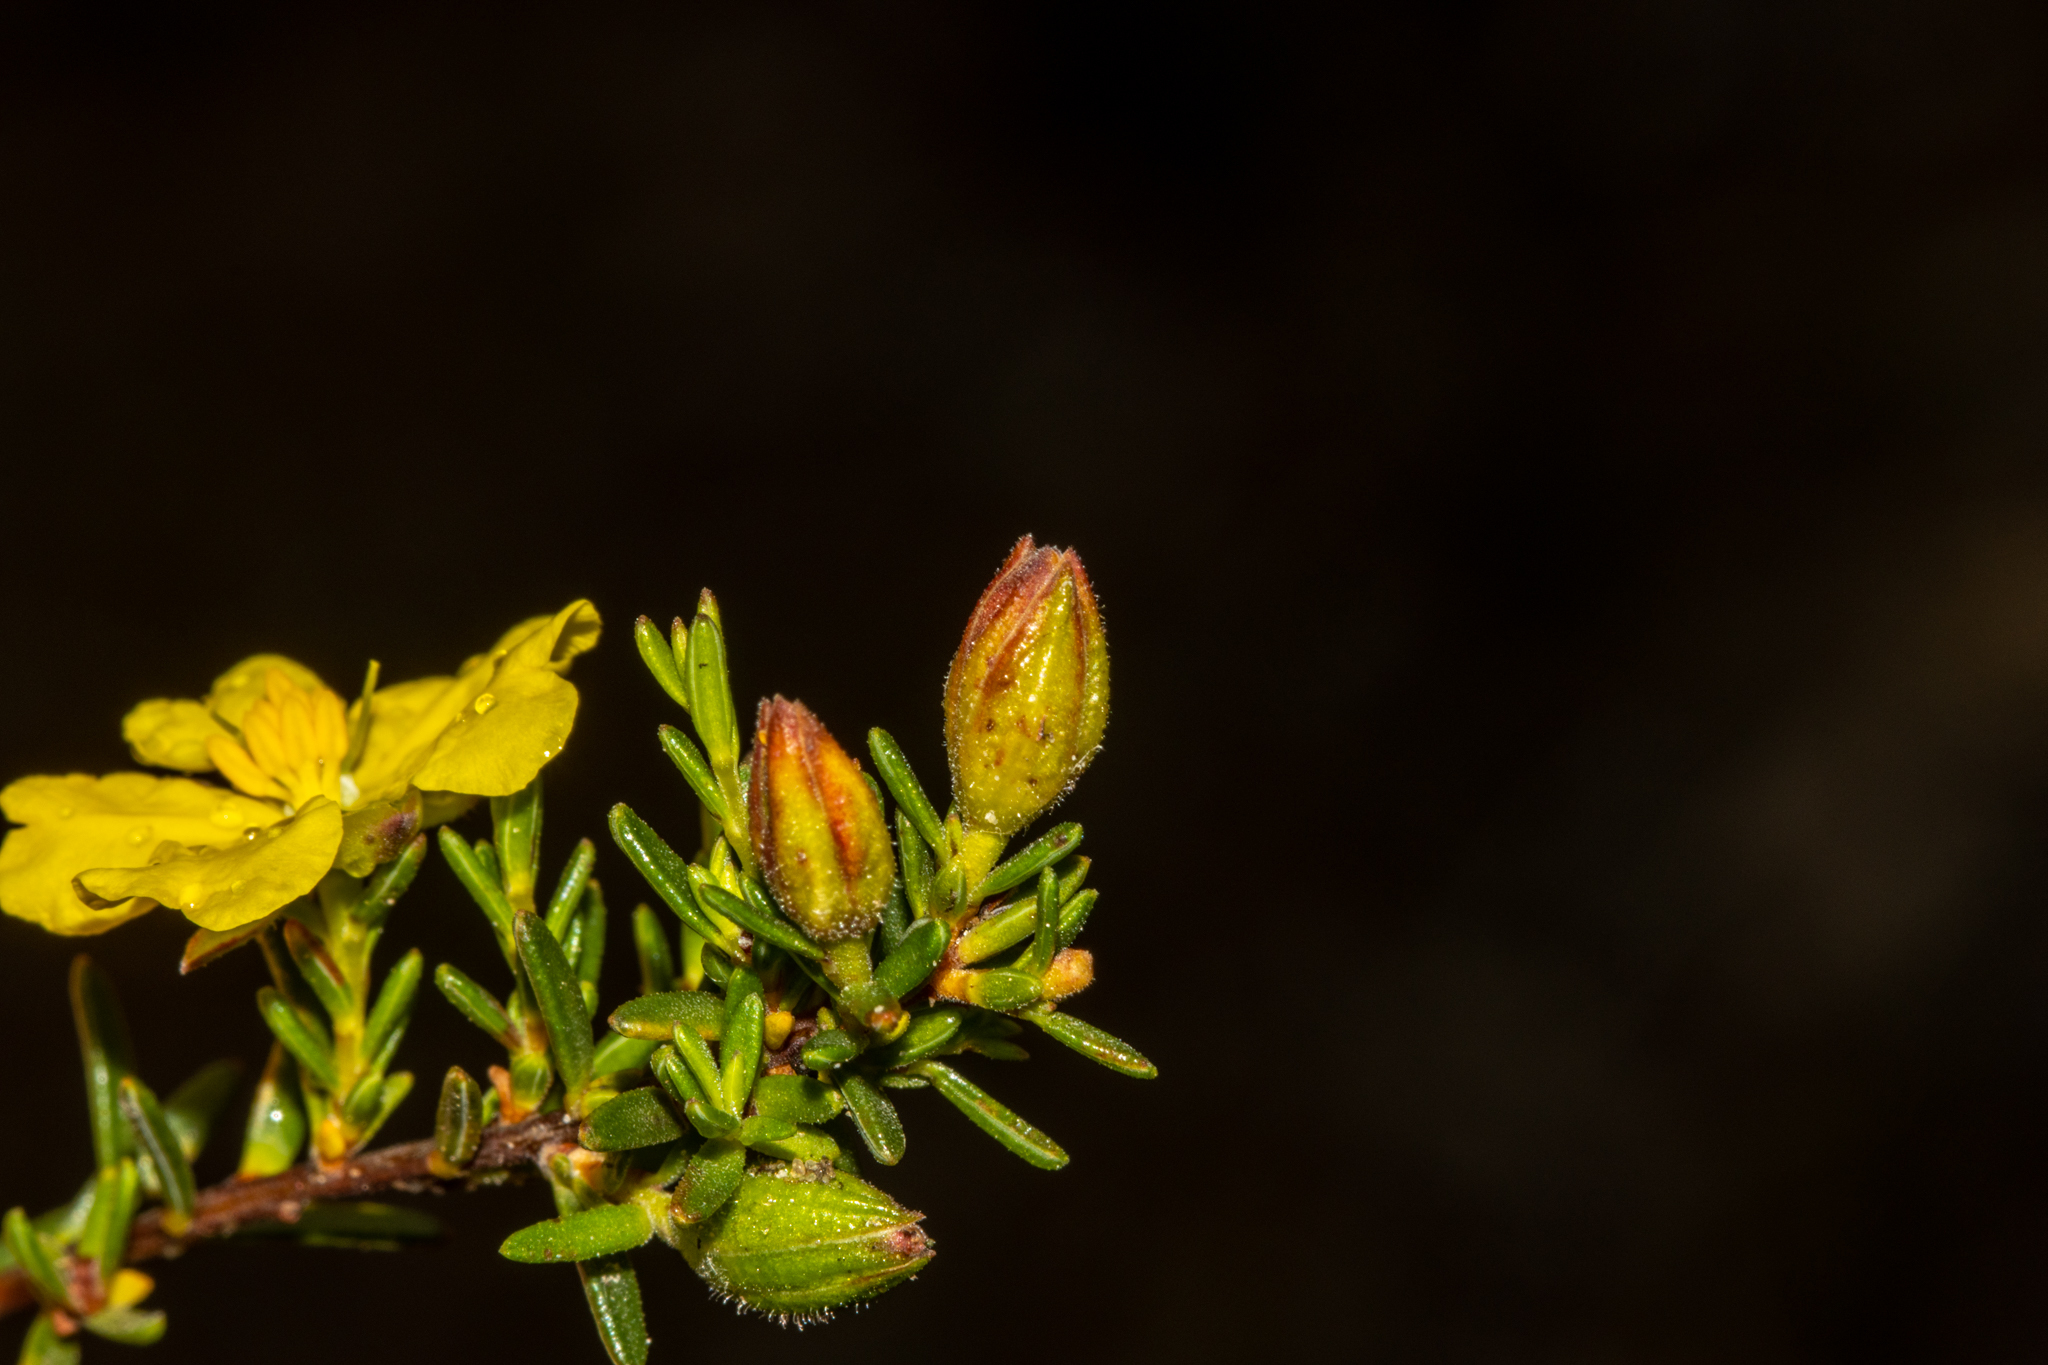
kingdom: Plantae
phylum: Tracheophyta
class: Magnoliopsida
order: Dilleniales
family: Dilleniaceae
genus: Hibbertia
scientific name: Hibbertia devitata
